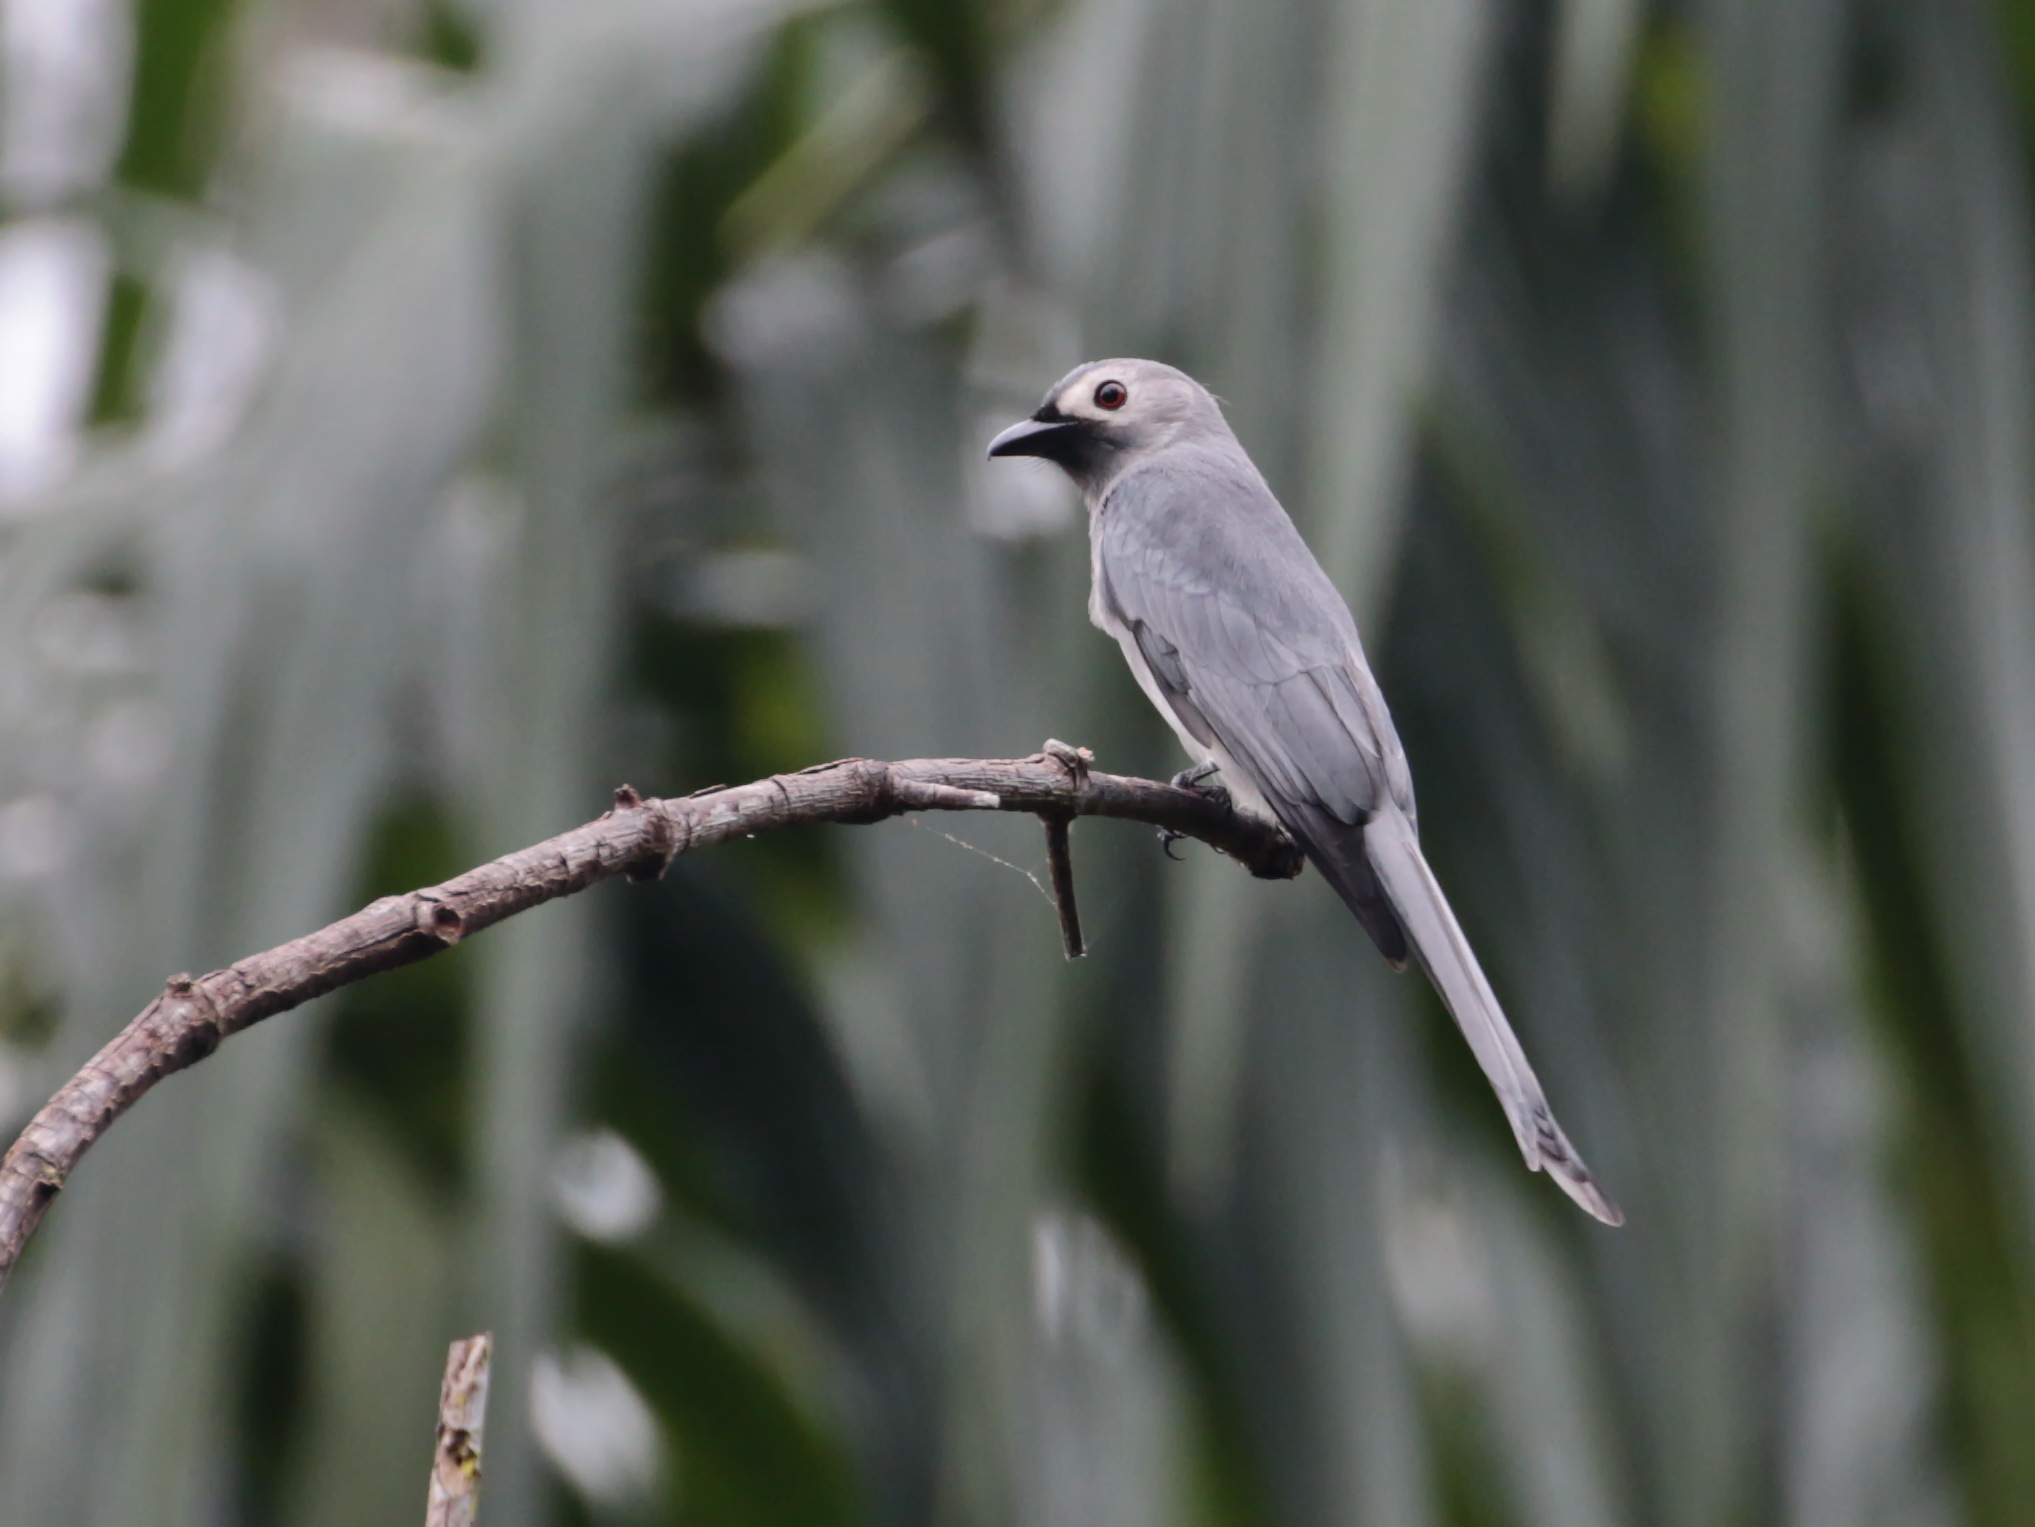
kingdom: Animalia
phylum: Chordata
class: Aves
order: Passeriformes
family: Dicruridae
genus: Dicrurus
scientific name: Dicrurus leucophaeus
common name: Ashy drongo
